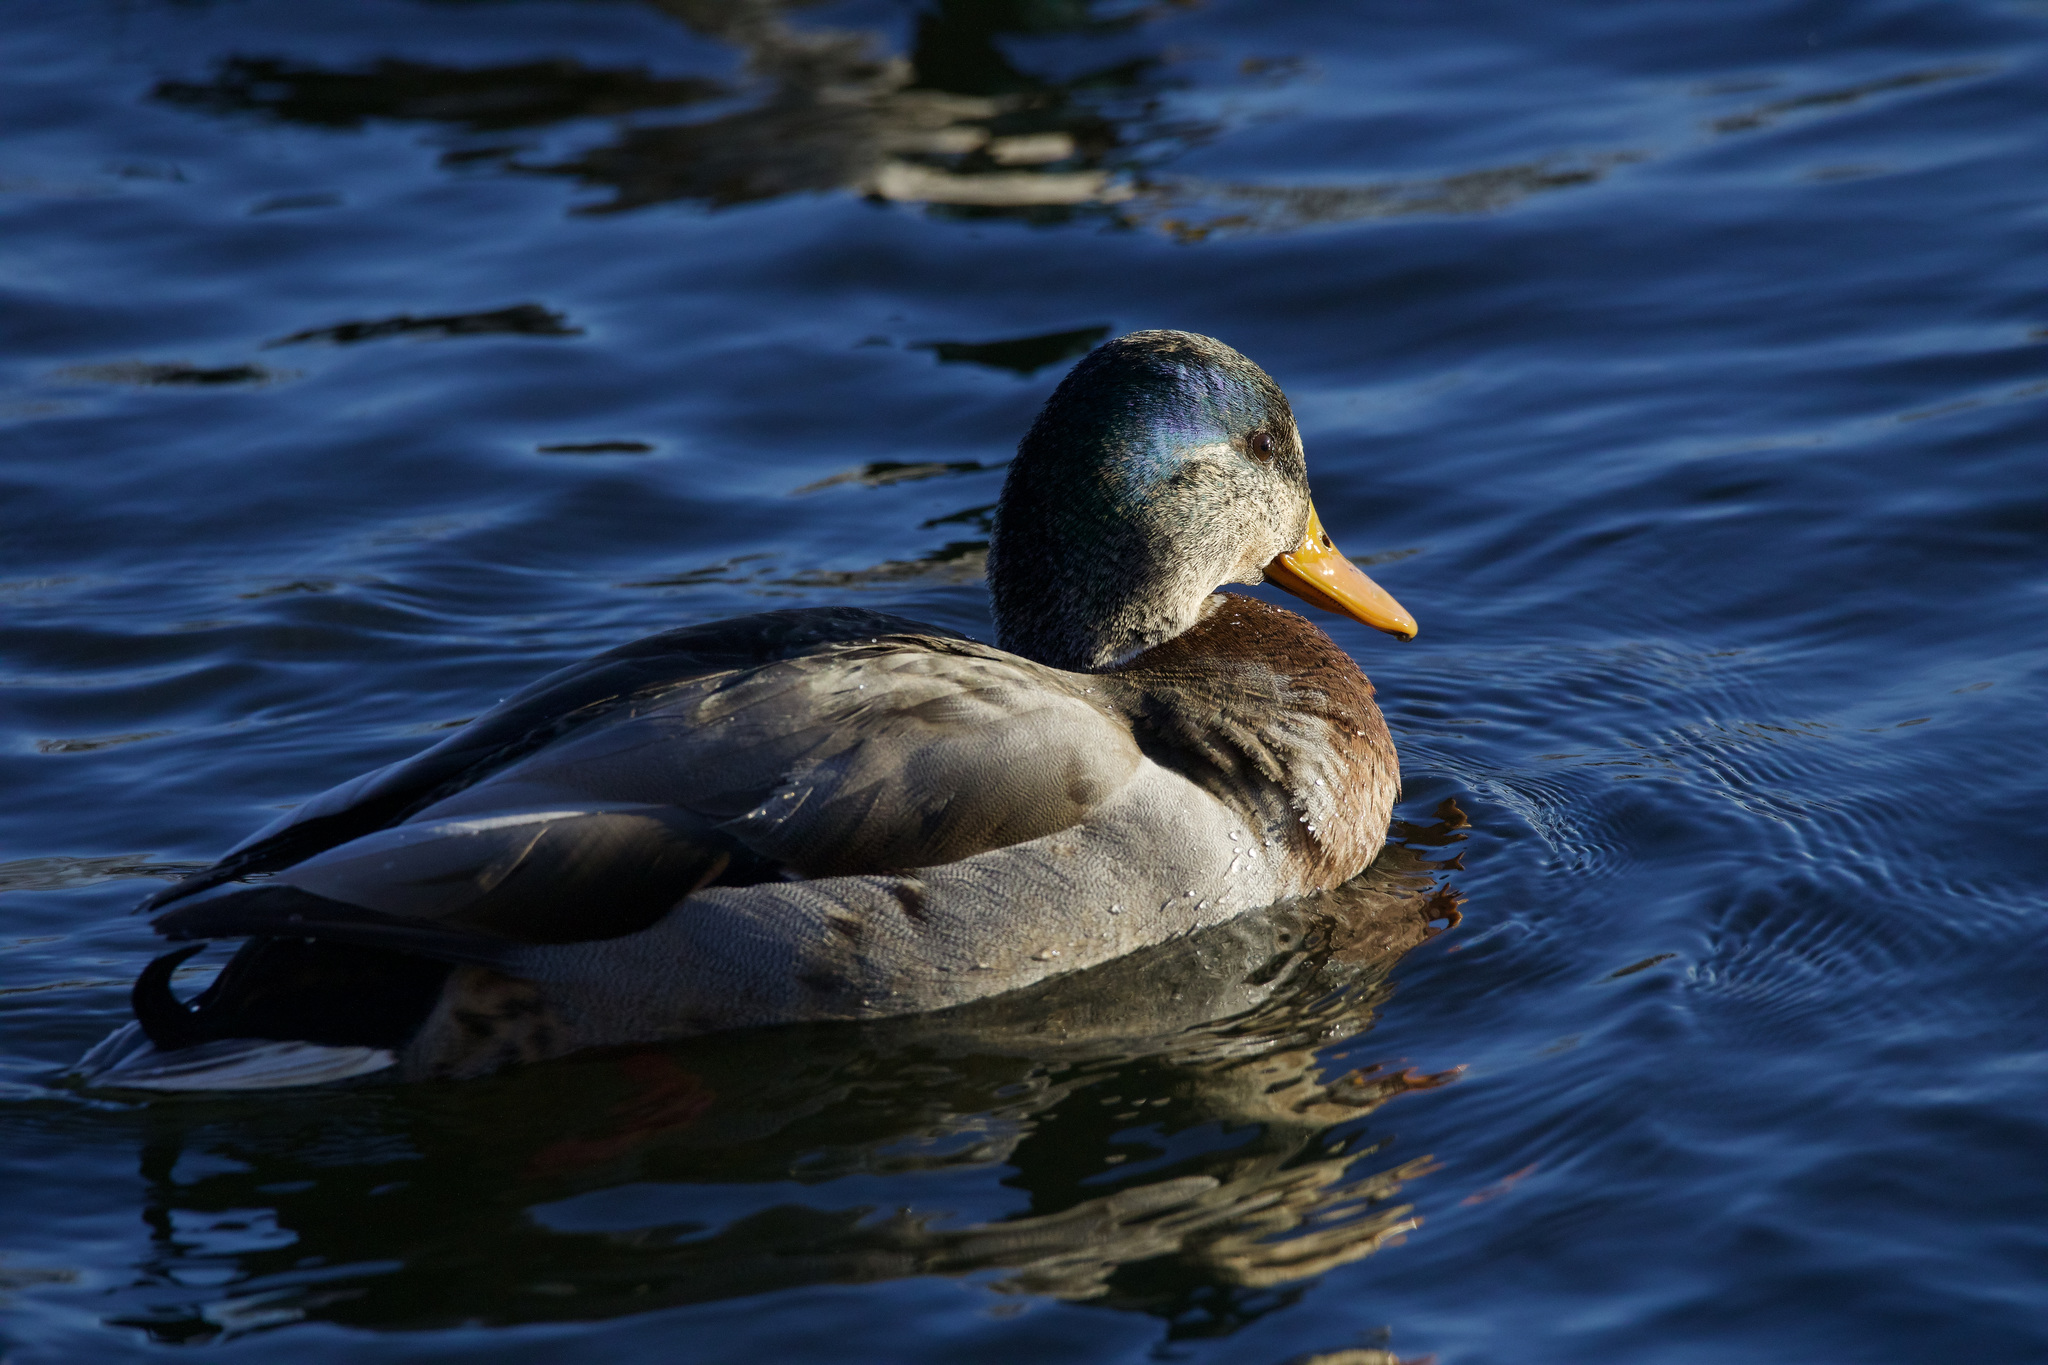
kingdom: Animalia
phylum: Chordata
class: Aves
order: Anseriformes
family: Anatidae
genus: Anas
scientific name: Anas platyrhynchos
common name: Mallard
